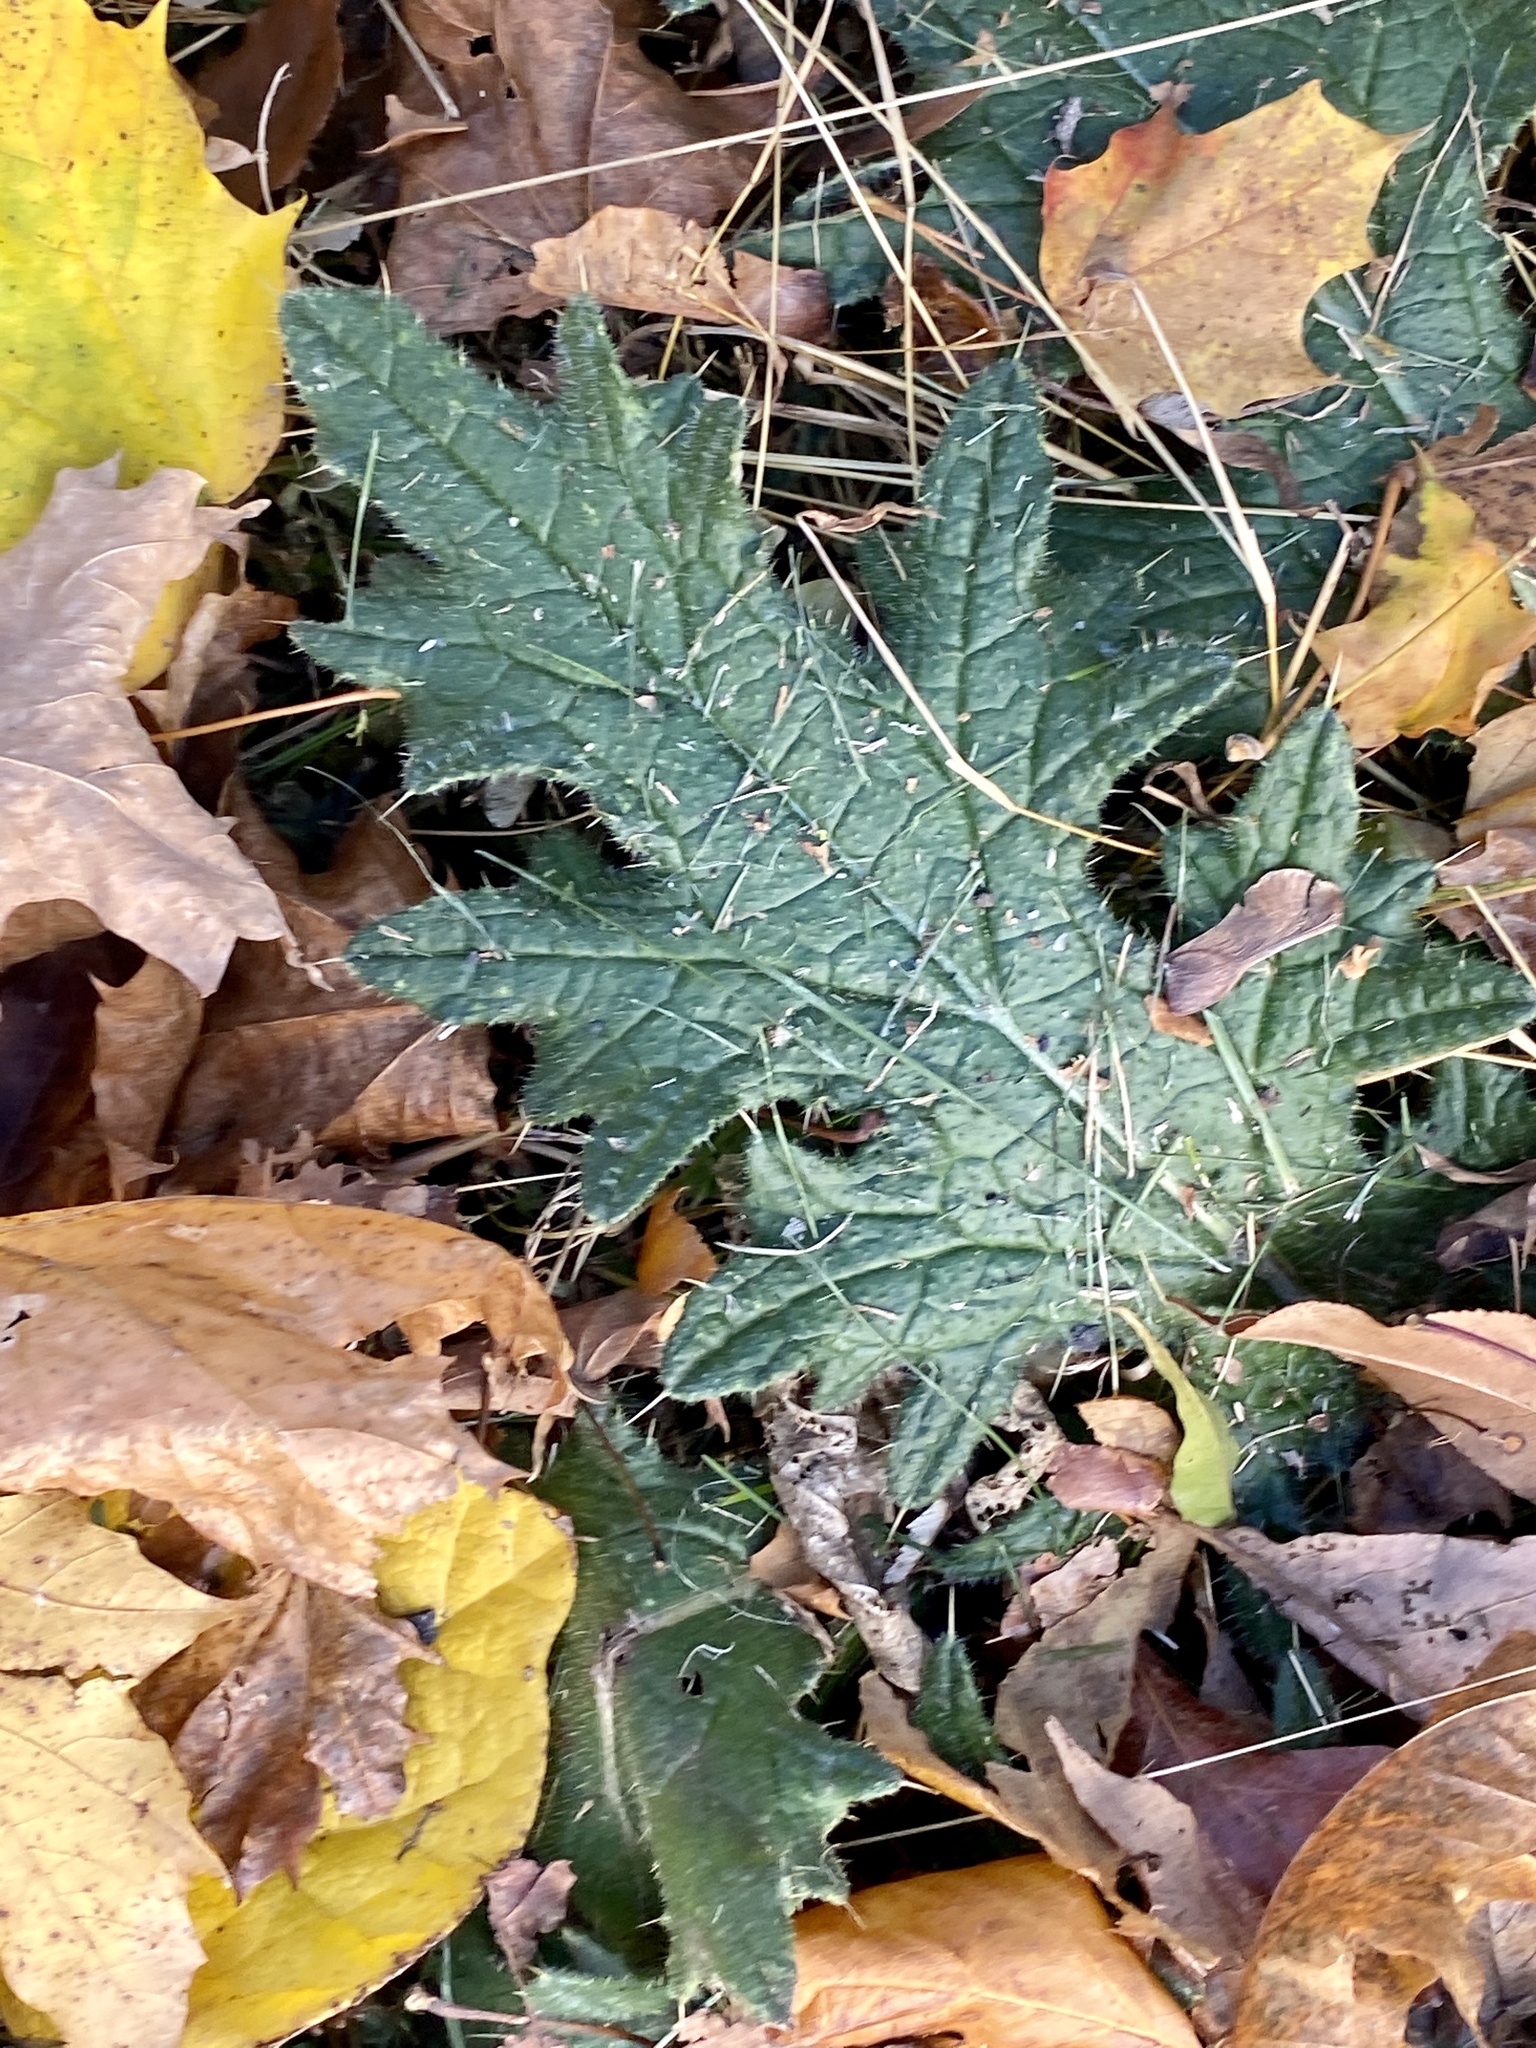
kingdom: Plantae
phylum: Tracheophyta
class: Magnoliopsida
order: Asterales
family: Asteraceae
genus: Cirsium
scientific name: Cirsium vulgare
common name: Bull thistle
